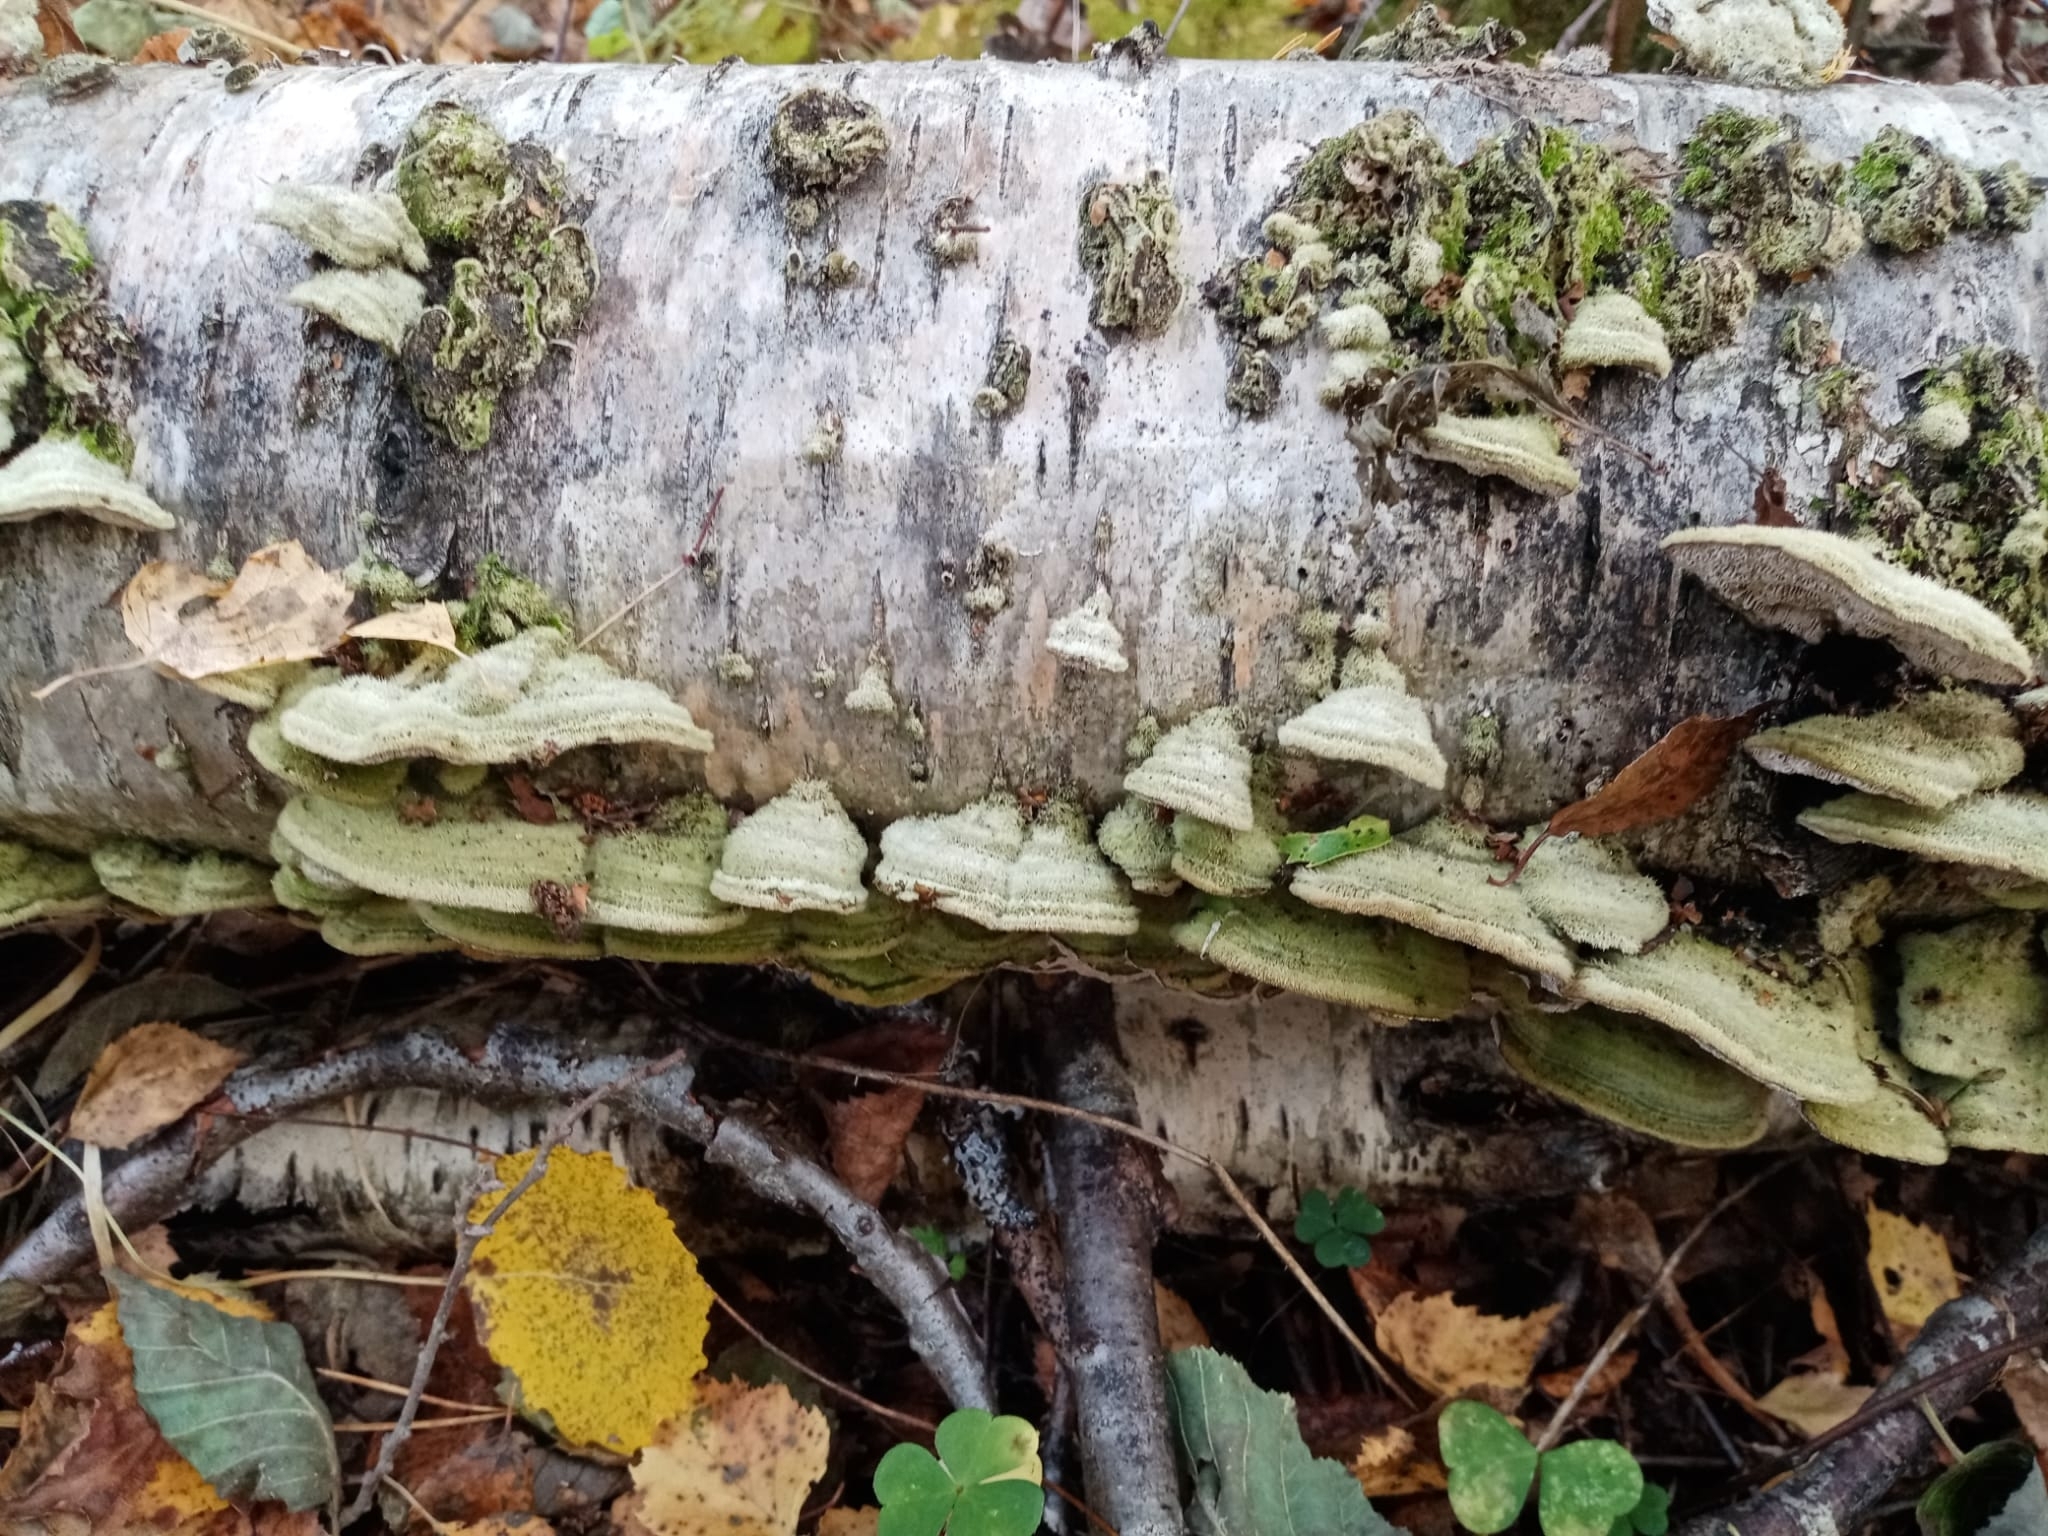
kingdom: Fungi
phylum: Basidiomycota
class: Agaricomycetes
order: Polyporales
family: Cerrenaceae
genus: Cerrena
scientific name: Cerrena unicolor
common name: Mossy maze polypore
